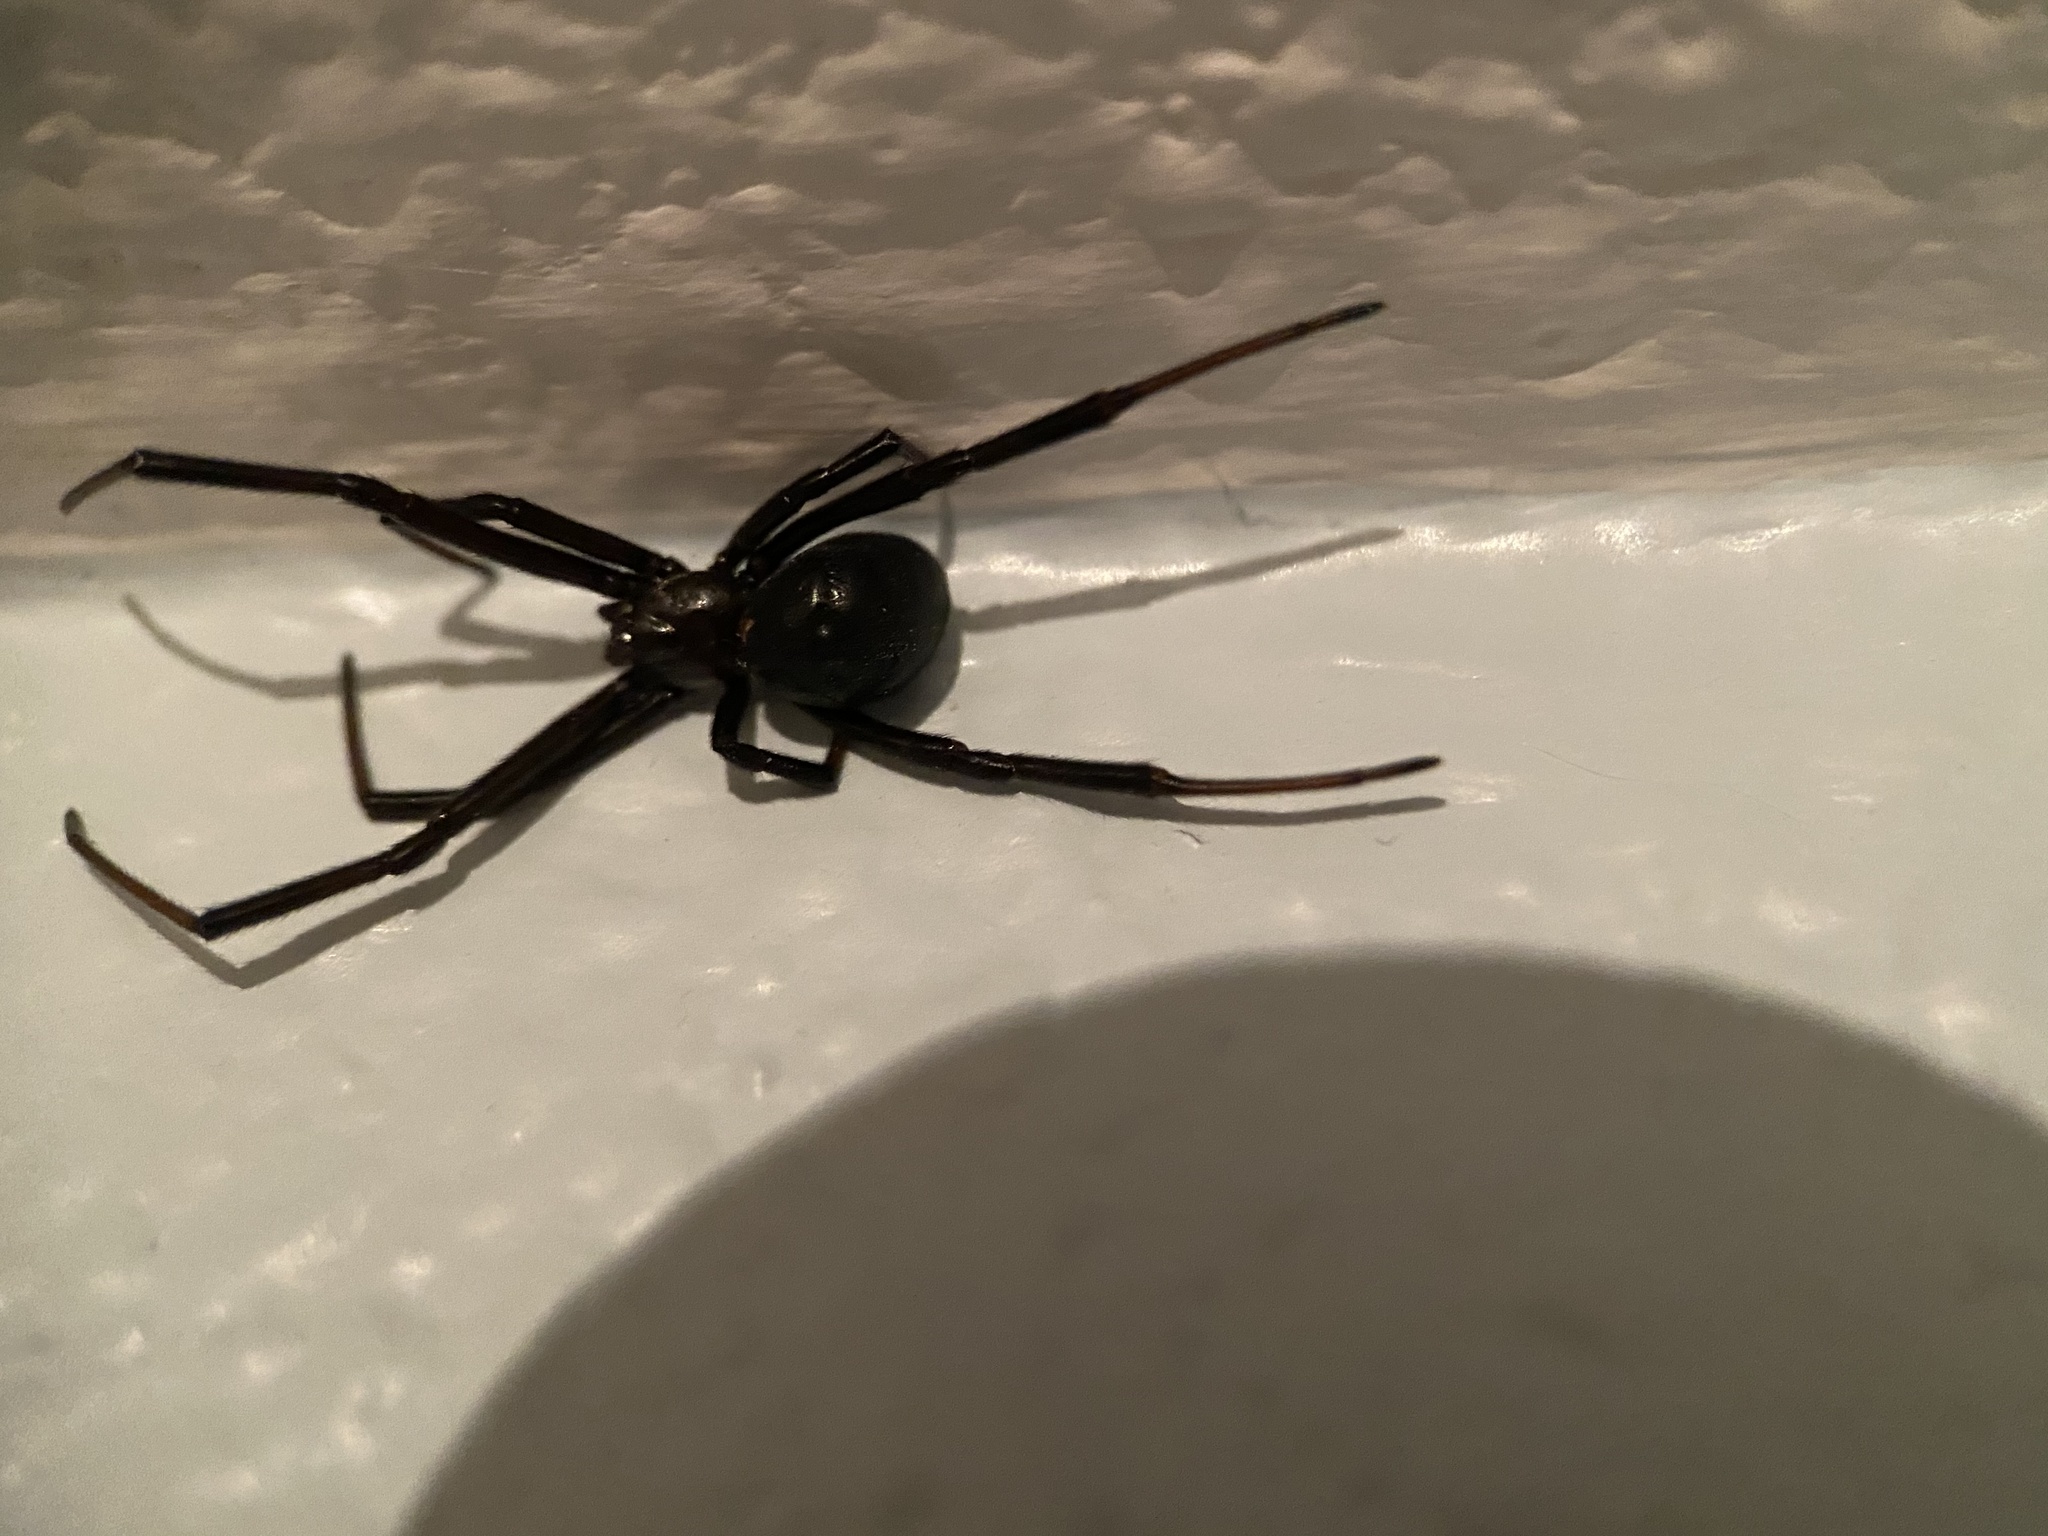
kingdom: Animalia
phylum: Arthropoda
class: Arachnida
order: Araneae
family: Theridiidae
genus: Latrodectus
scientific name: Latrodectus hesperus
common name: Western black widow
